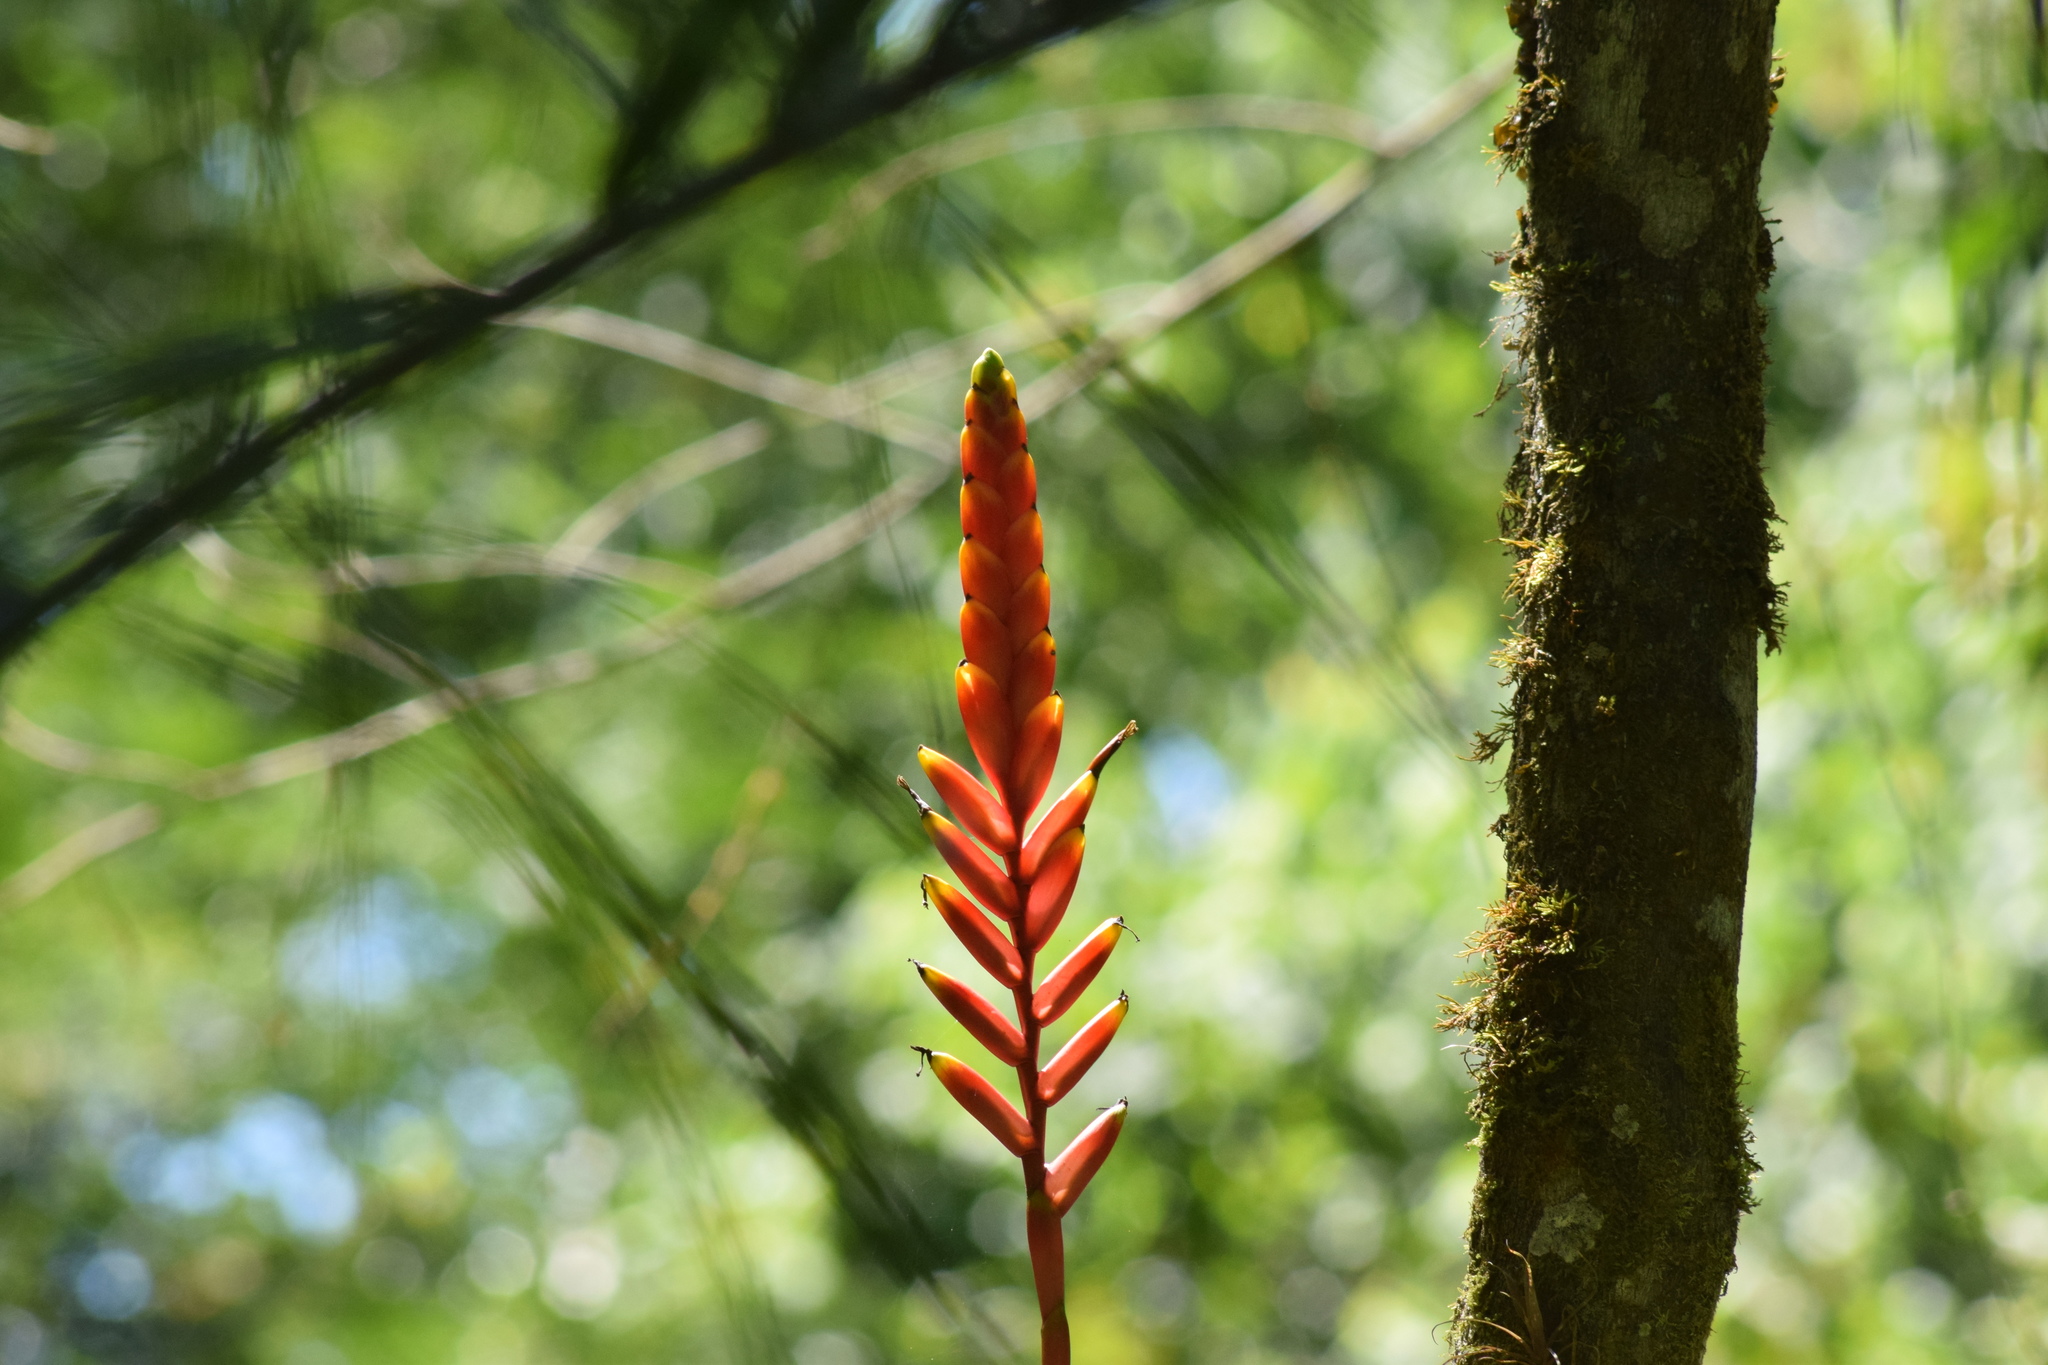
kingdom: Plantae
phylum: Tracheophyta
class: Liliopsida
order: Poales
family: Bromeliaceae
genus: Vriesea
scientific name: Vriesea ensiformis
